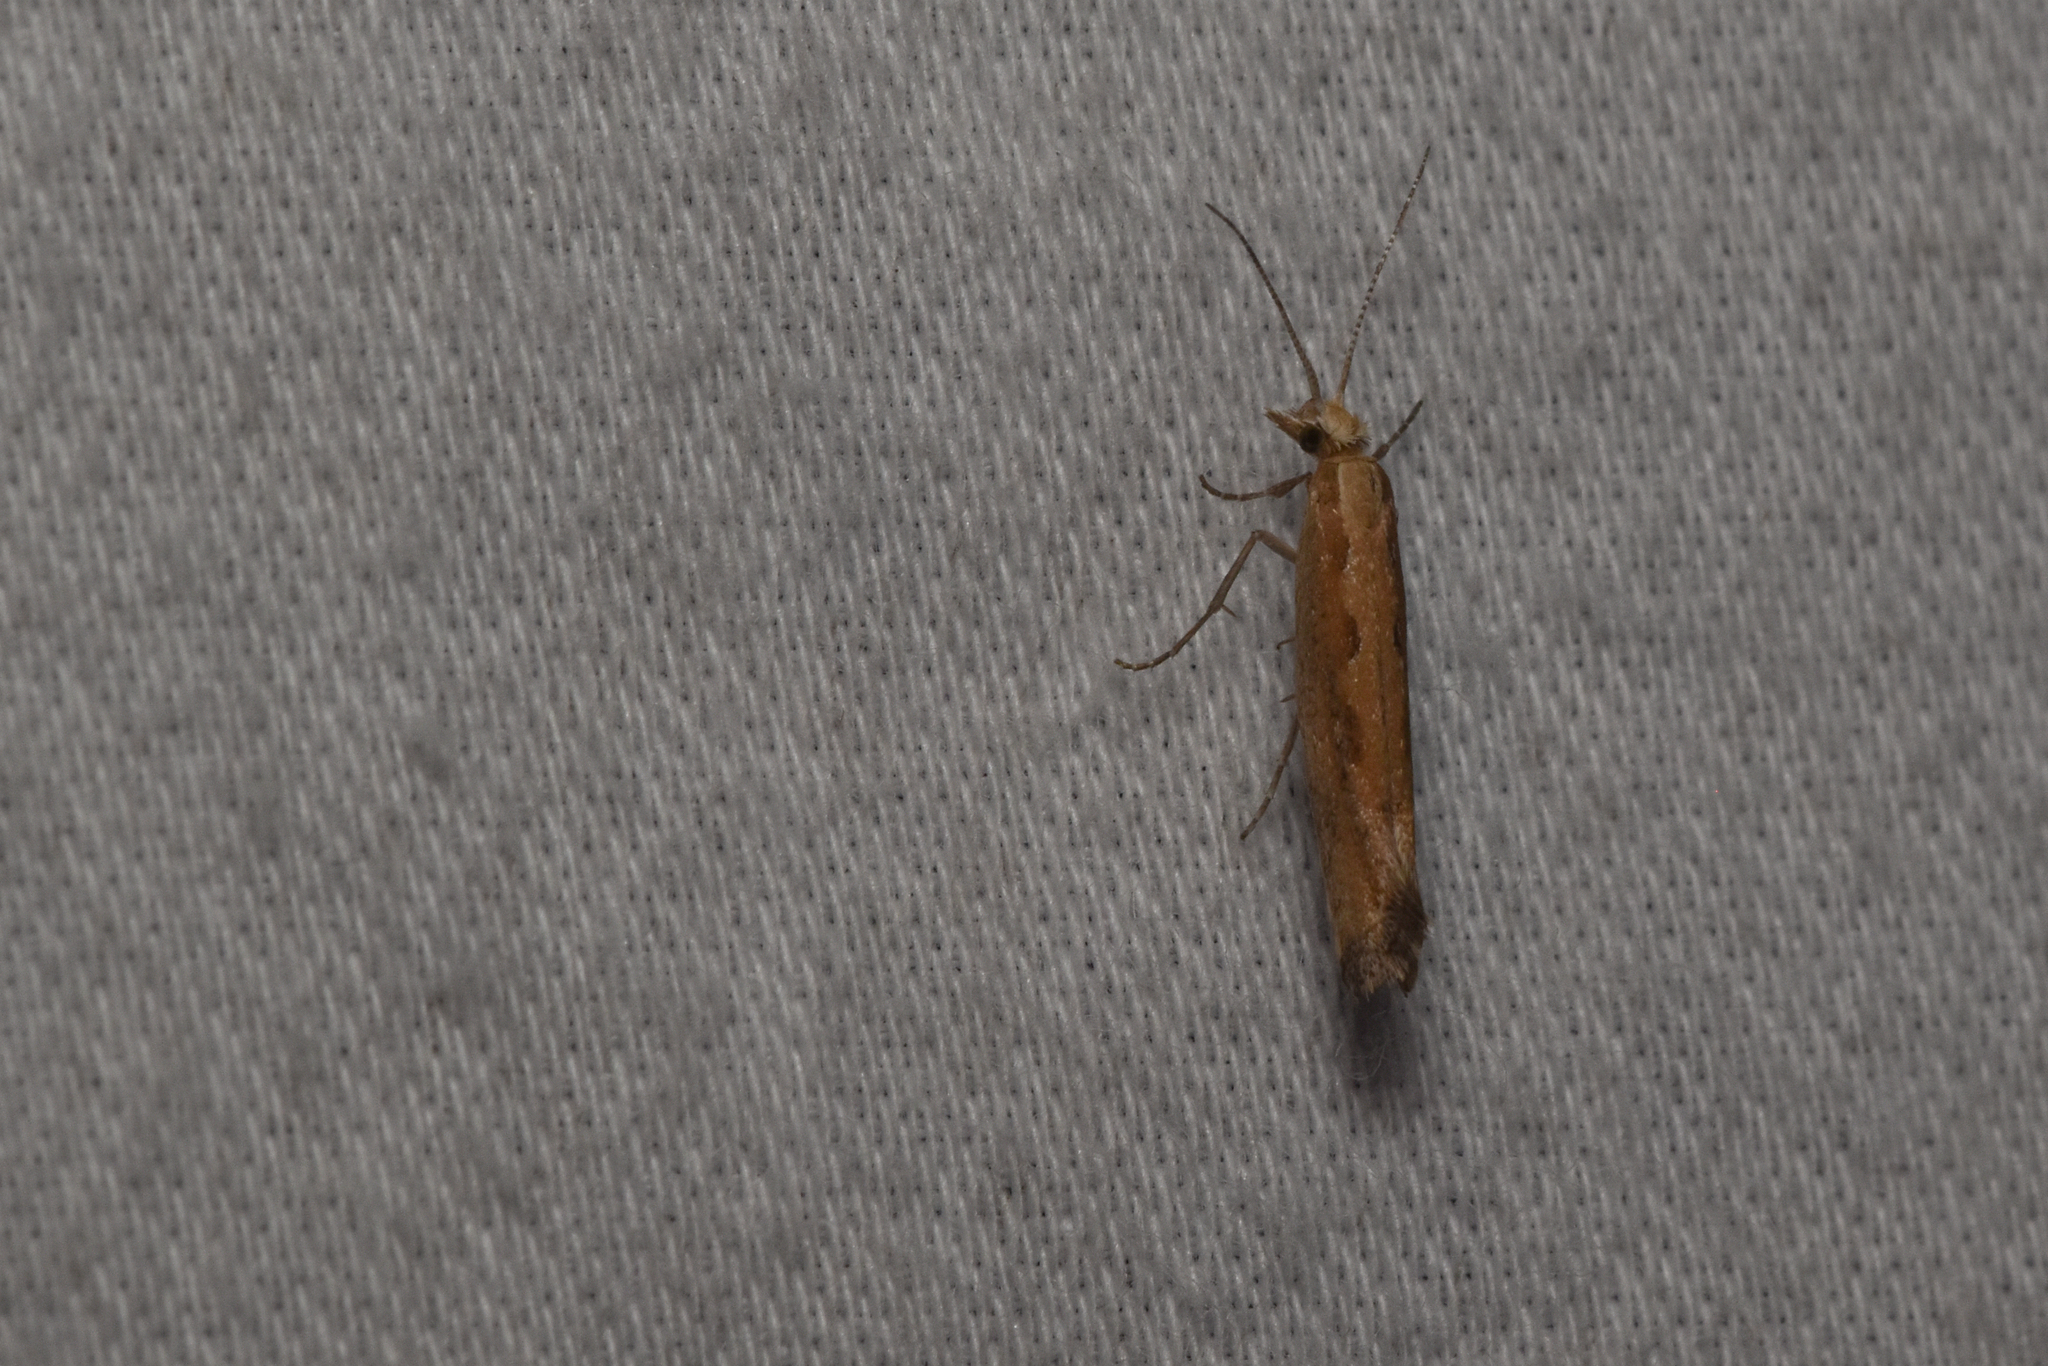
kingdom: Animalia
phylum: Arthropoda
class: Insecta
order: Lepidoptera
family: Plutellidae
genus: Plutella
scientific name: Plutella xylostella
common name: Diamond-back moth
